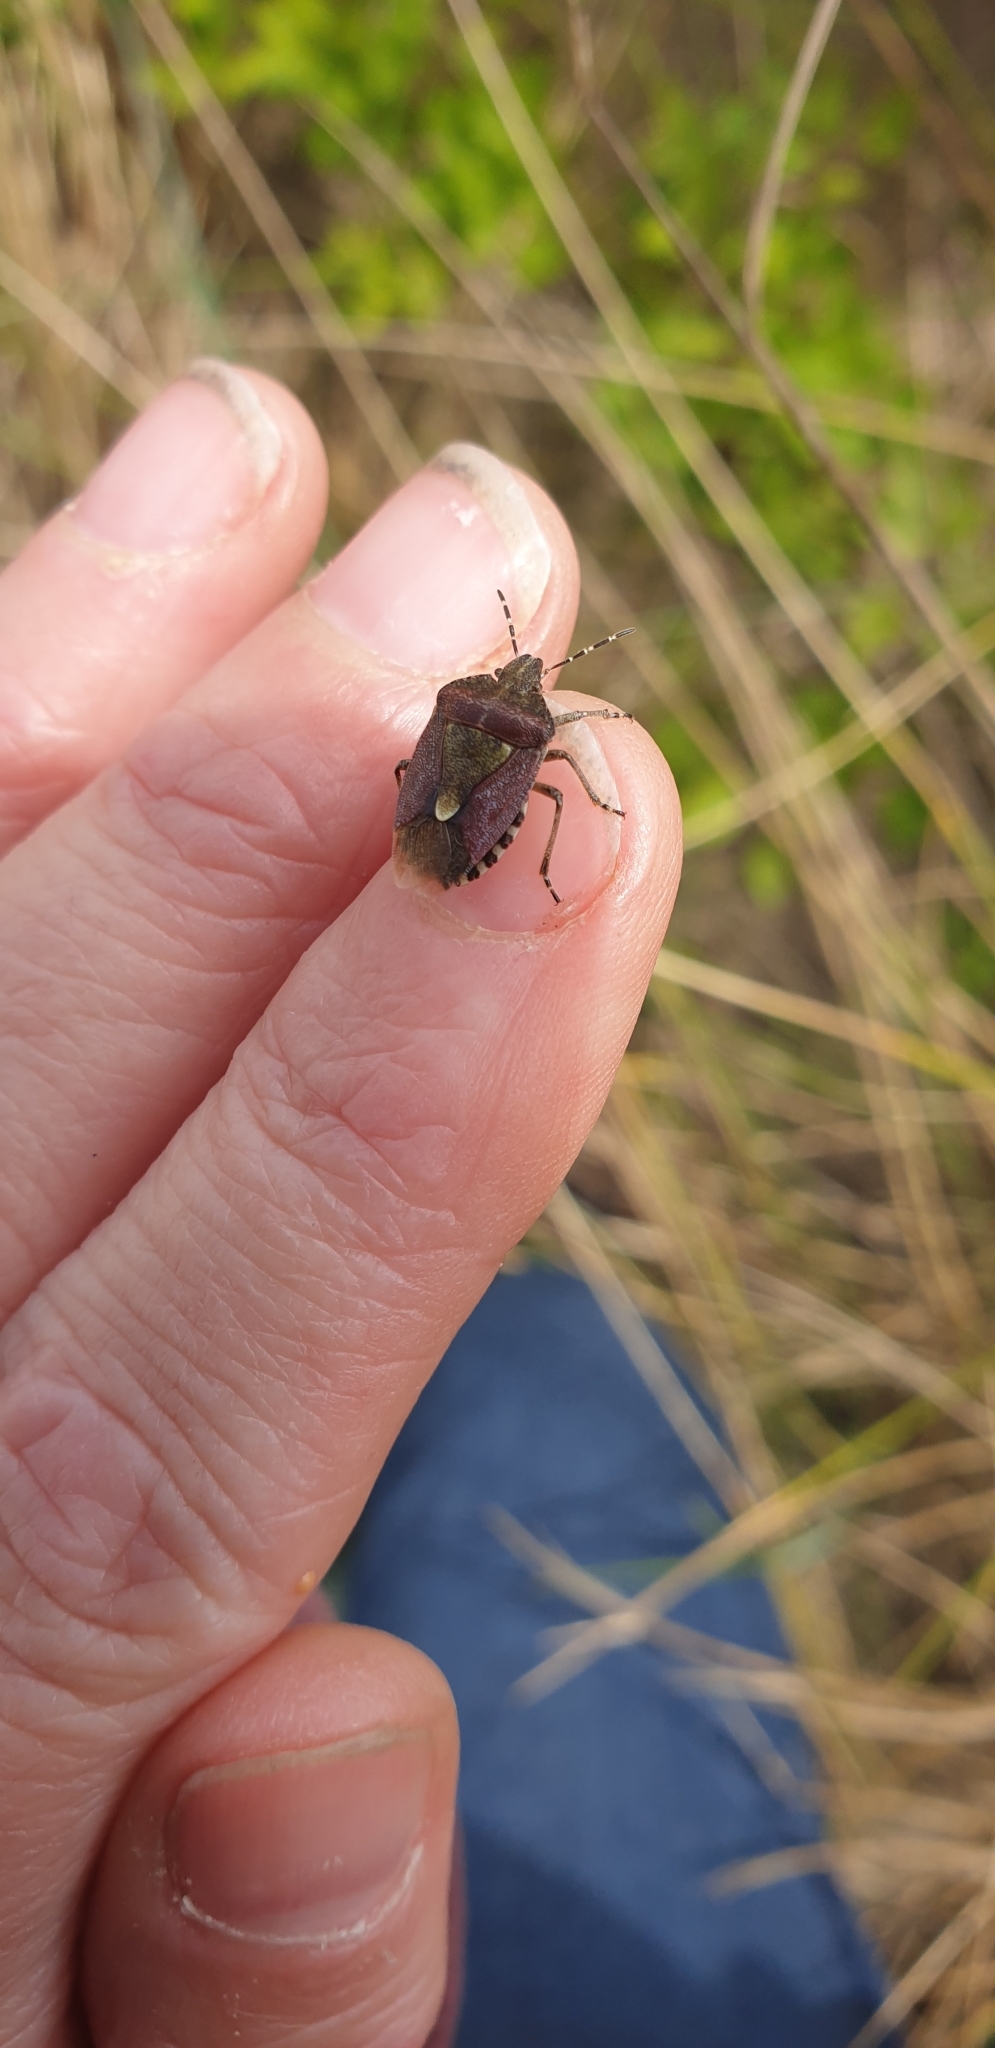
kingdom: Animalia
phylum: Arthropoda
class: Insecta
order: Hemiptera
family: Pentatomidae
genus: Dolycoris
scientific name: Dolycoris baccarum
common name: Sloe bug
